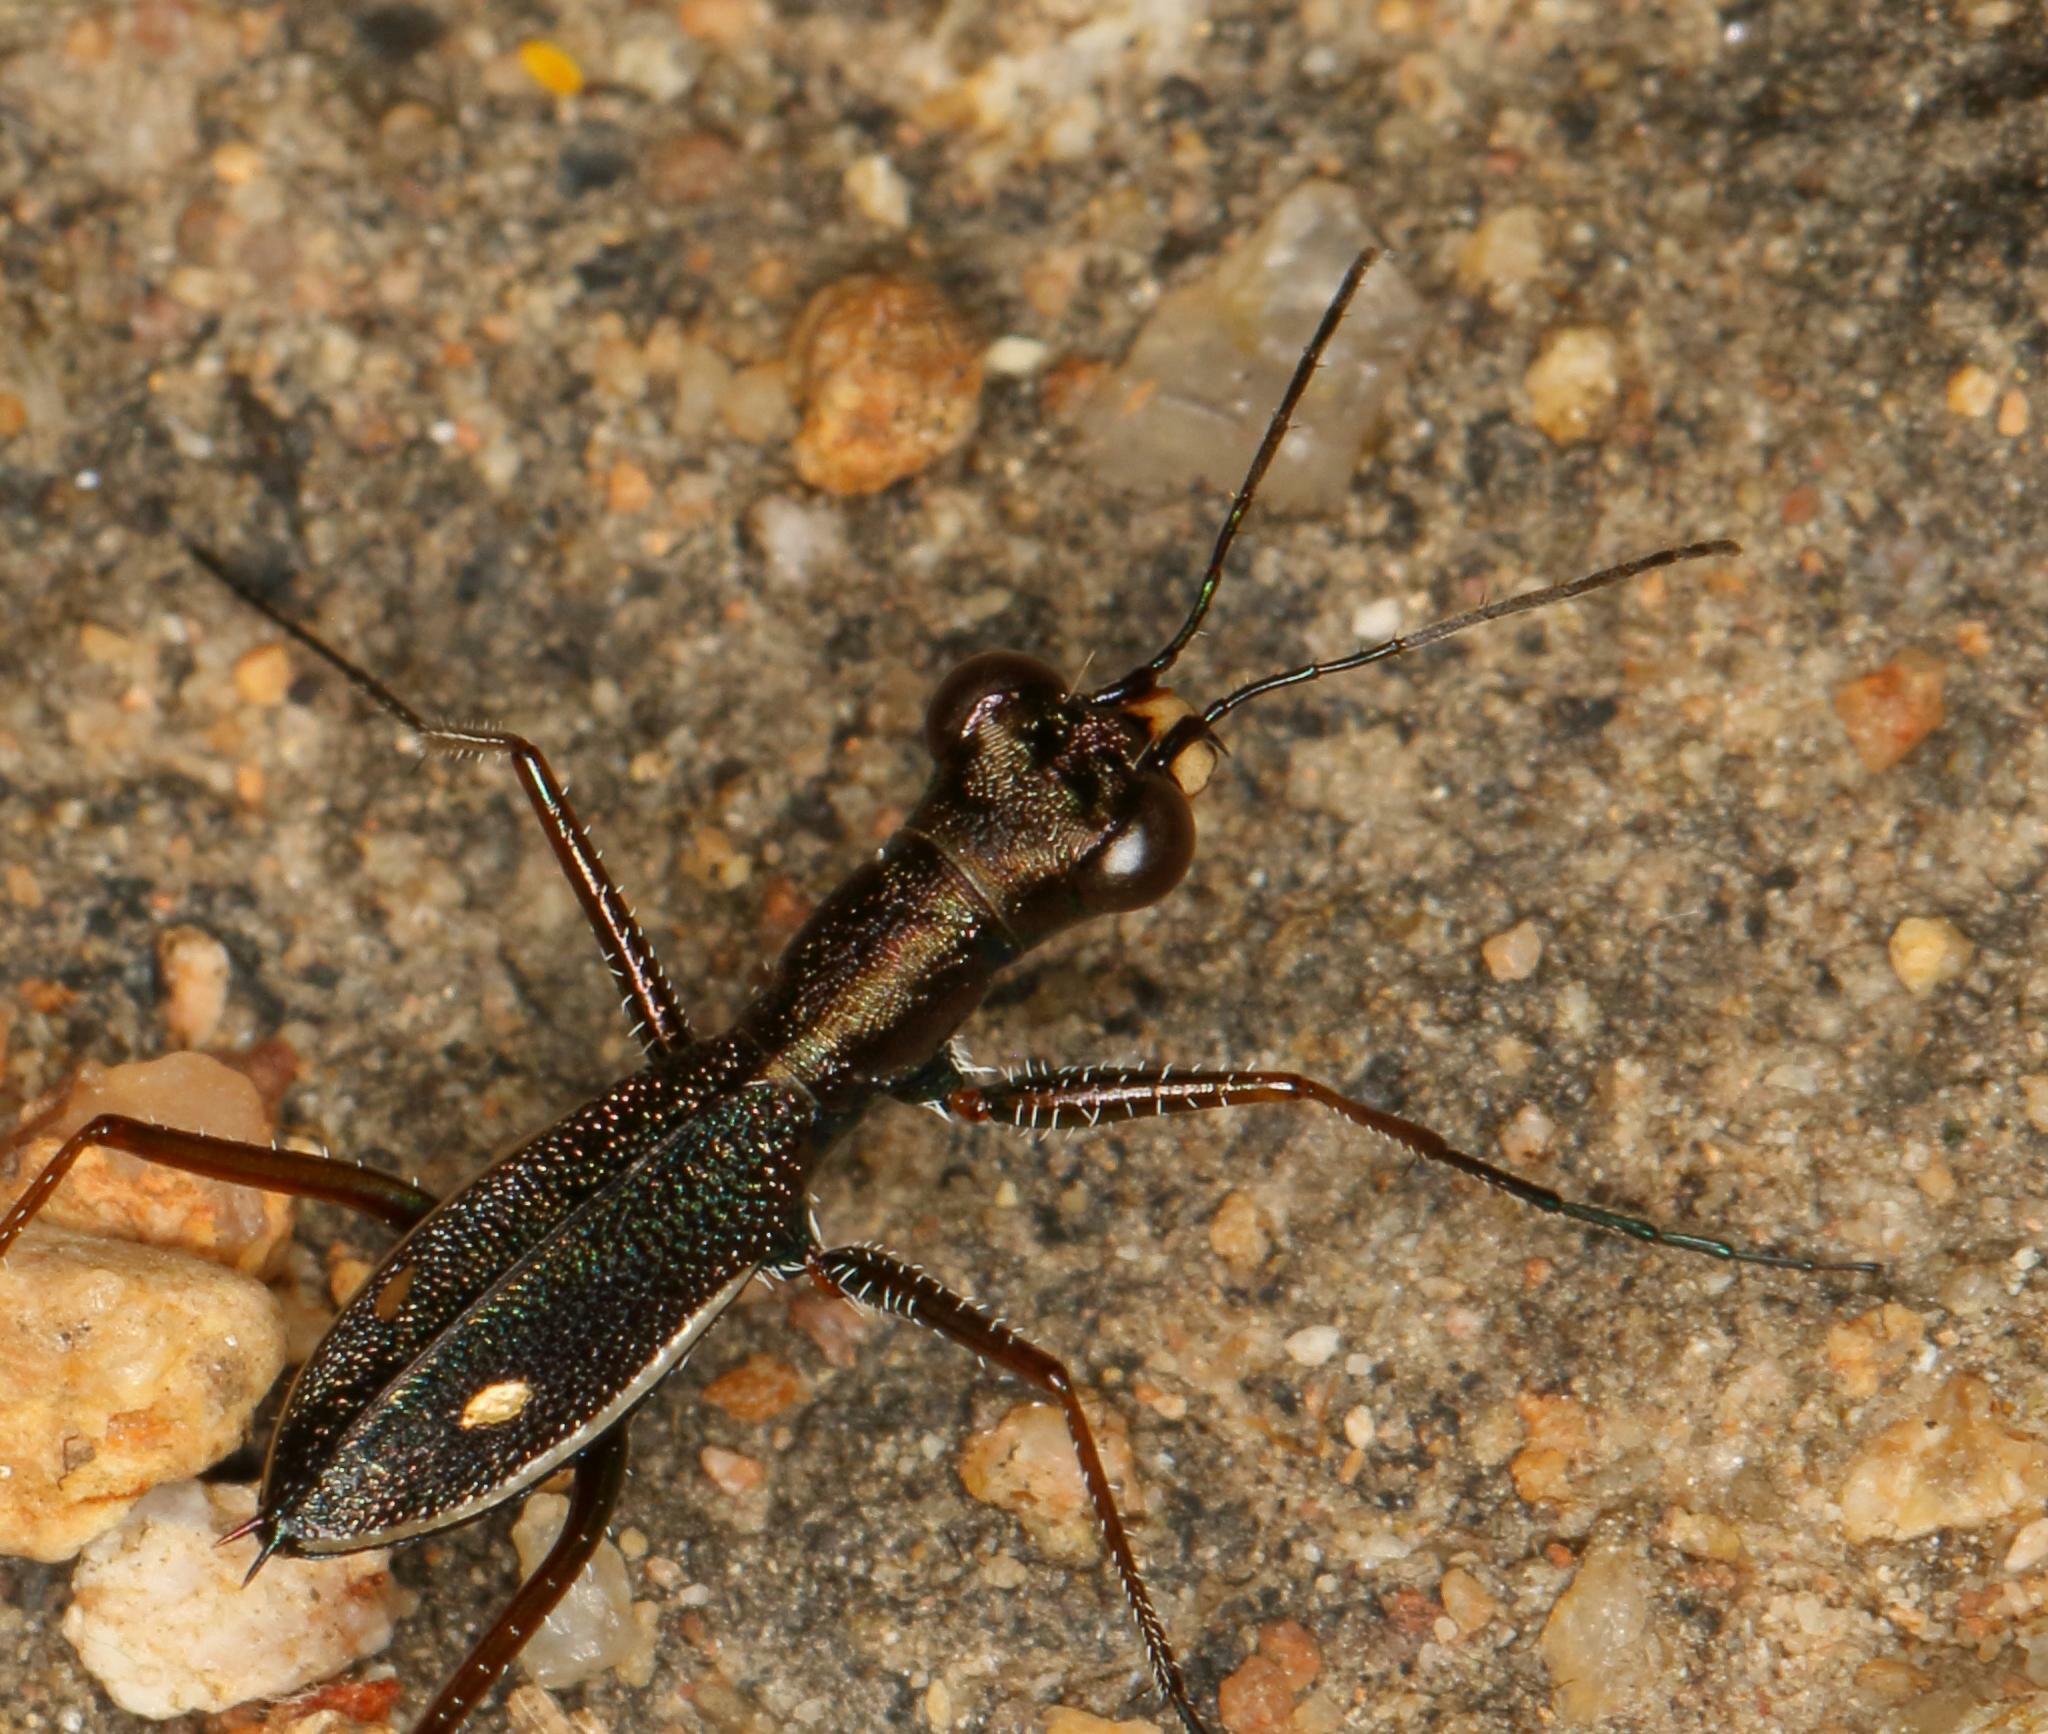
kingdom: Animalia
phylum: Arthropoda
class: Insecta
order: Coleoptera
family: Carabidae
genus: Dromica
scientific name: Dromica tenella
